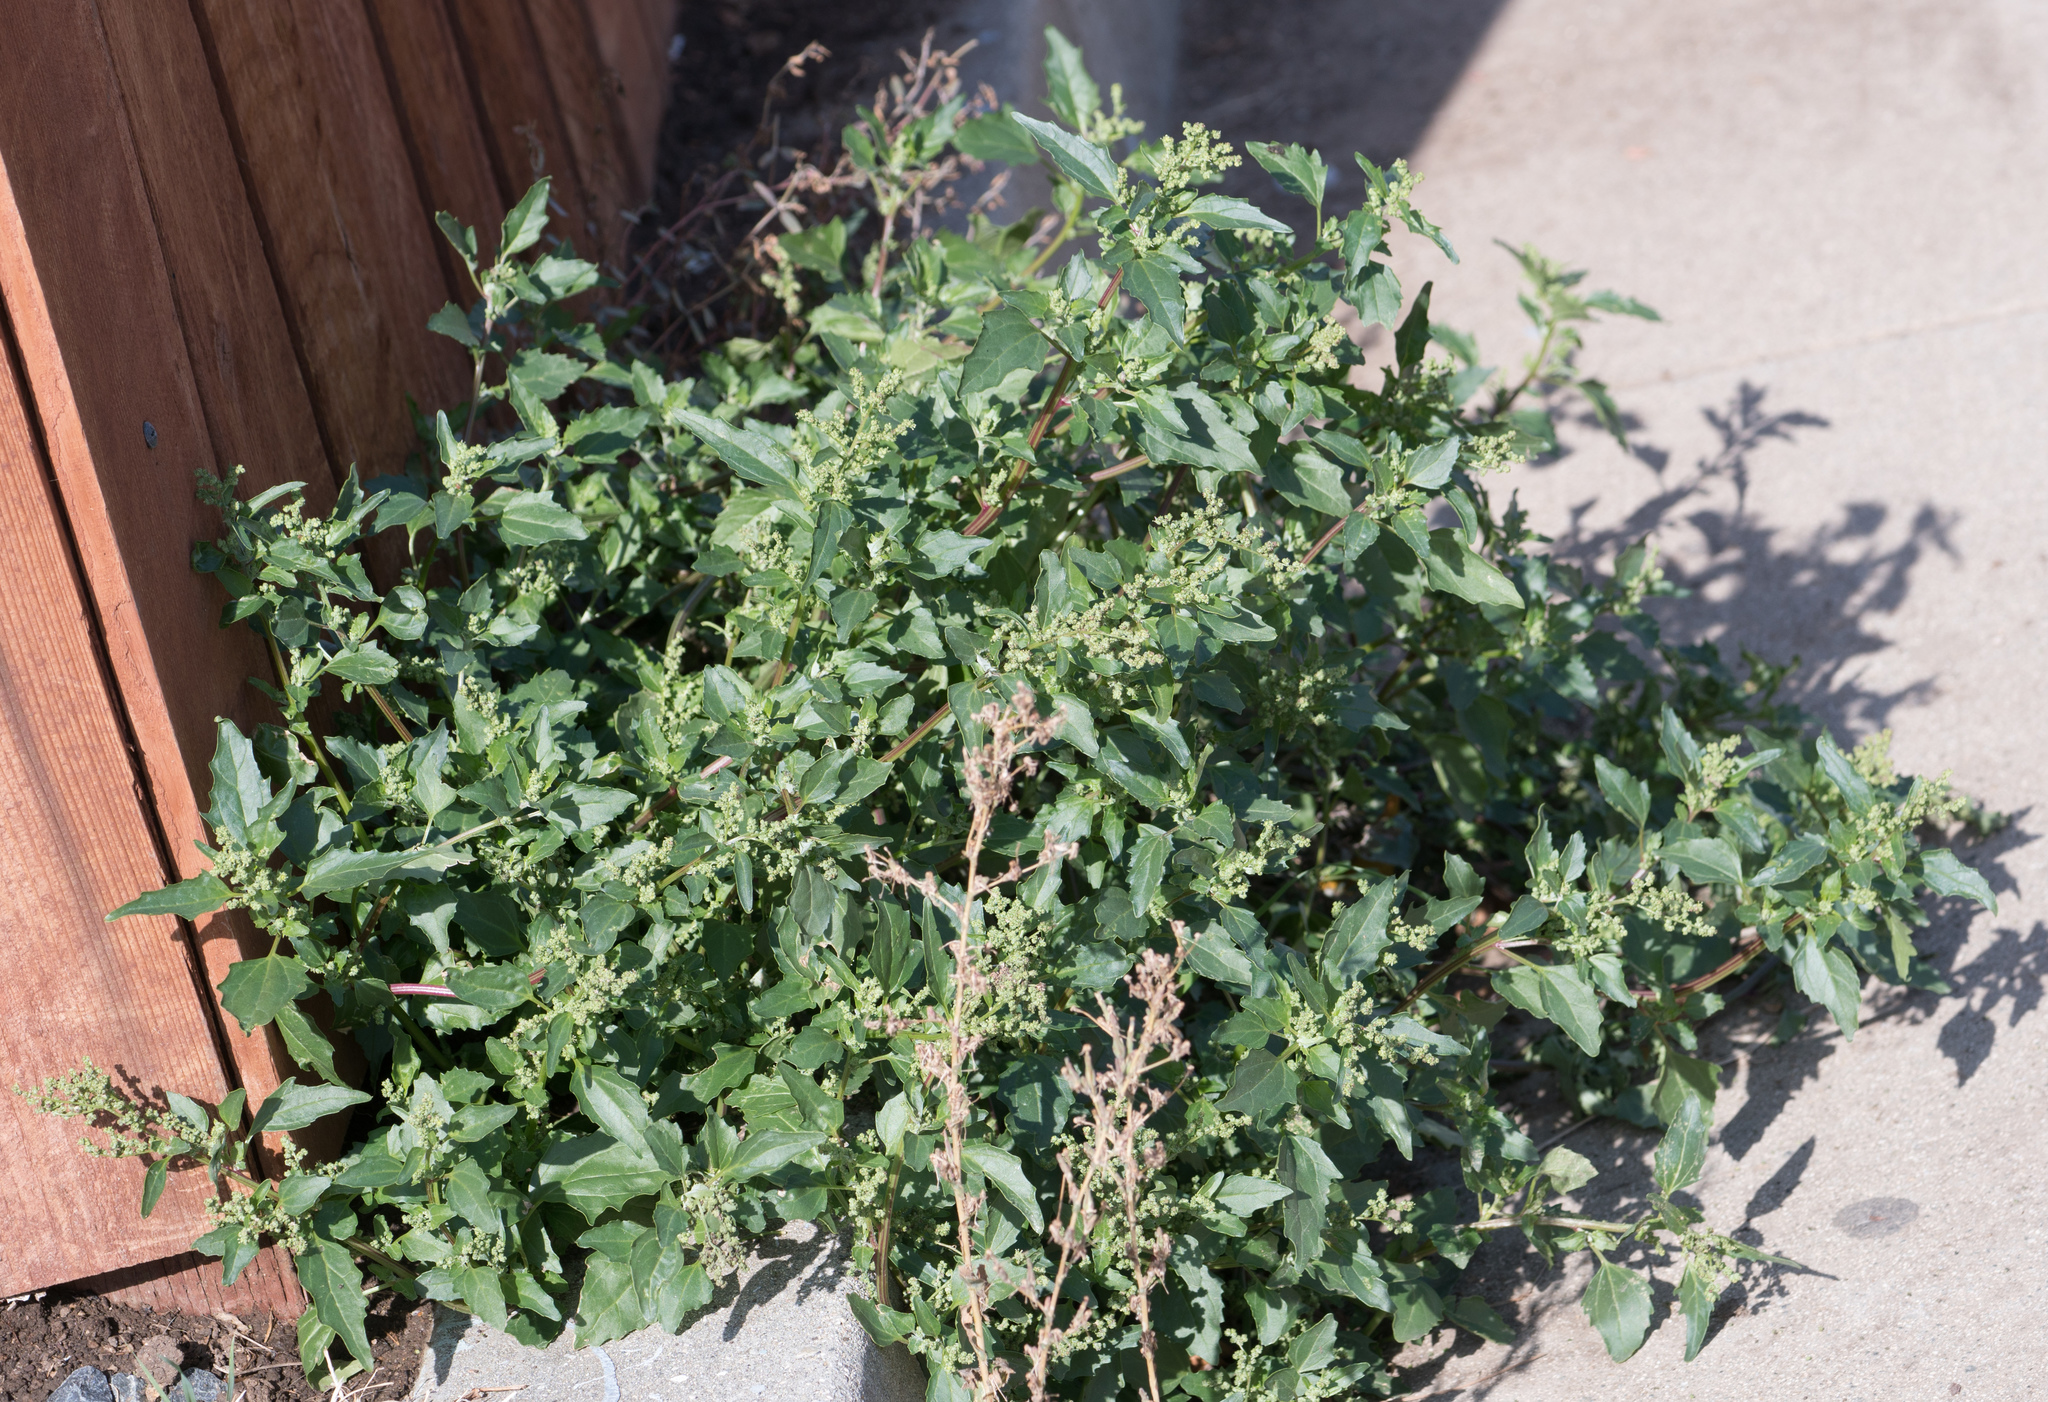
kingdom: Plantae
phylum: Tracheophyta
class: Magnoliopsida
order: Caryophyllales
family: Amaranthaceae
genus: Chenopodiastrum
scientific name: Chenopodiastrum murale
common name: Sowbane
